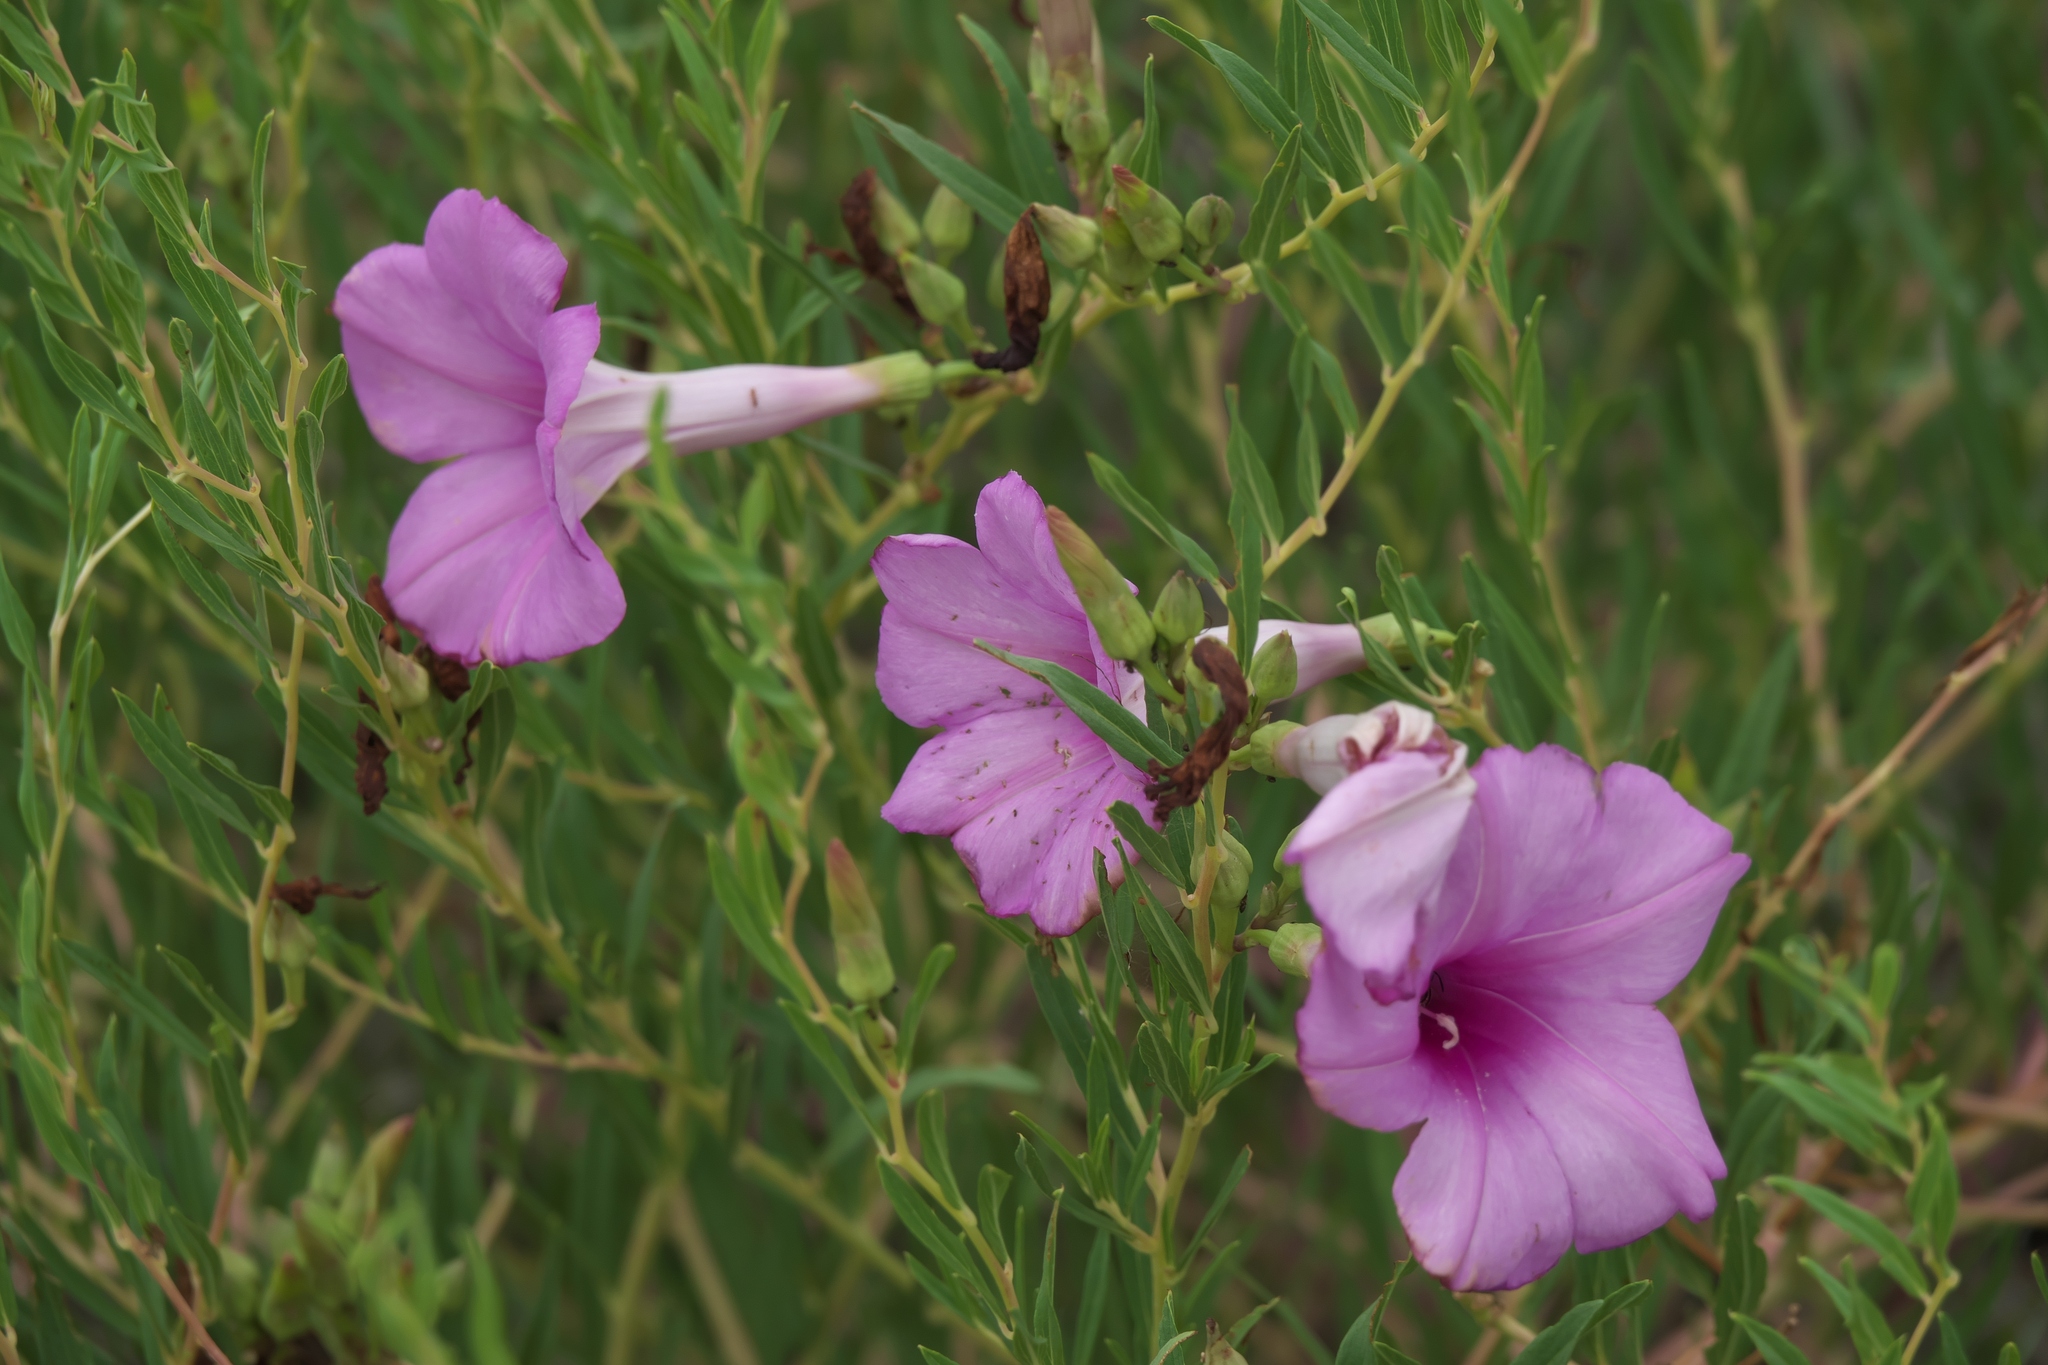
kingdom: Plantae
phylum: Tracheophyta
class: Magnoliopsida
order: Solanales
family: Convolvulaceae
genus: Ipomoea
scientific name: Ipomoea leptophylla
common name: Bush moonflower
